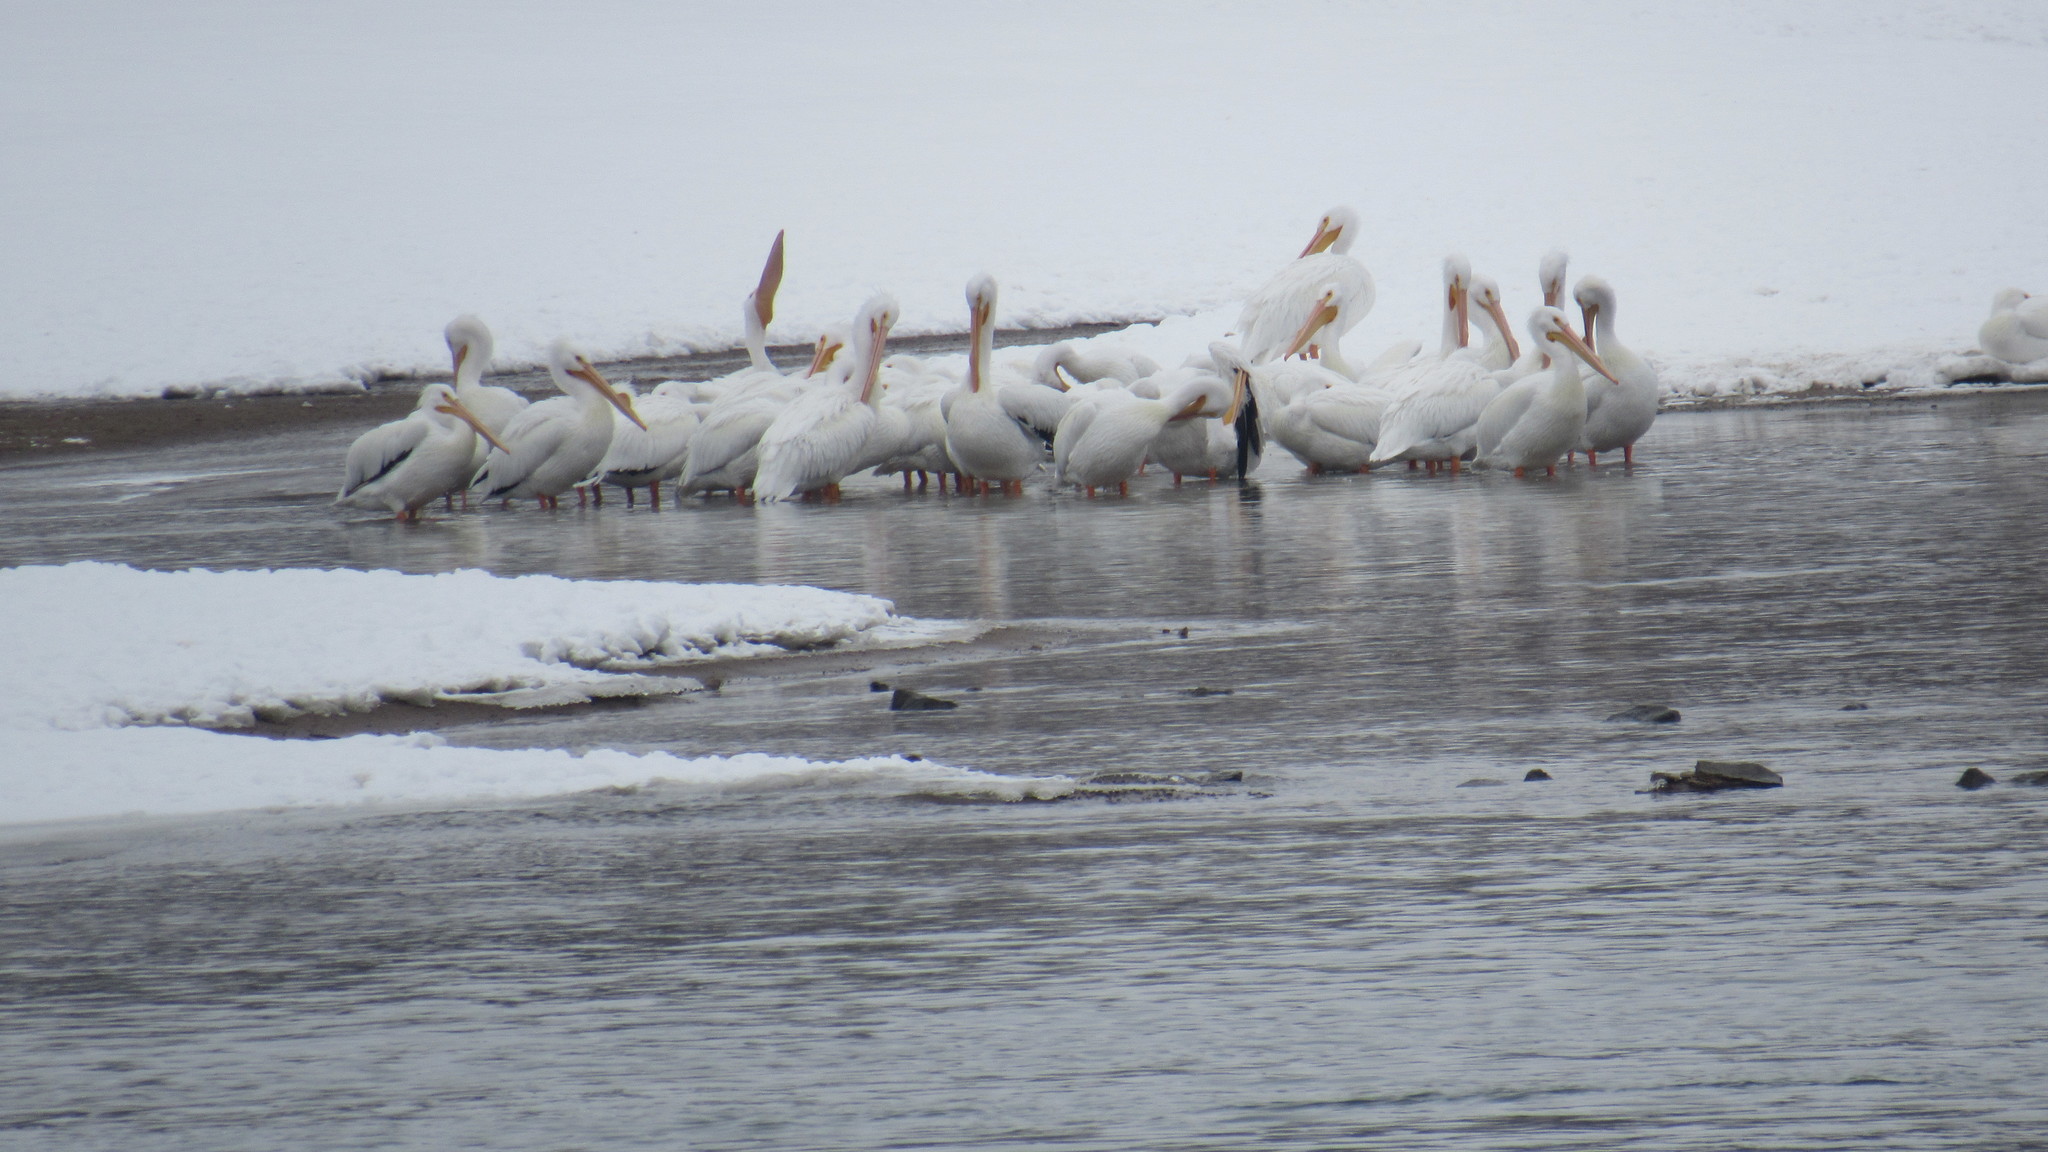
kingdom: Animalia
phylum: Chordata
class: Aves
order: Pelecaniformes
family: Pelecanidae
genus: Pelecanus
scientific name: Pelecanus erythrorhynchos
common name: American white pelican
